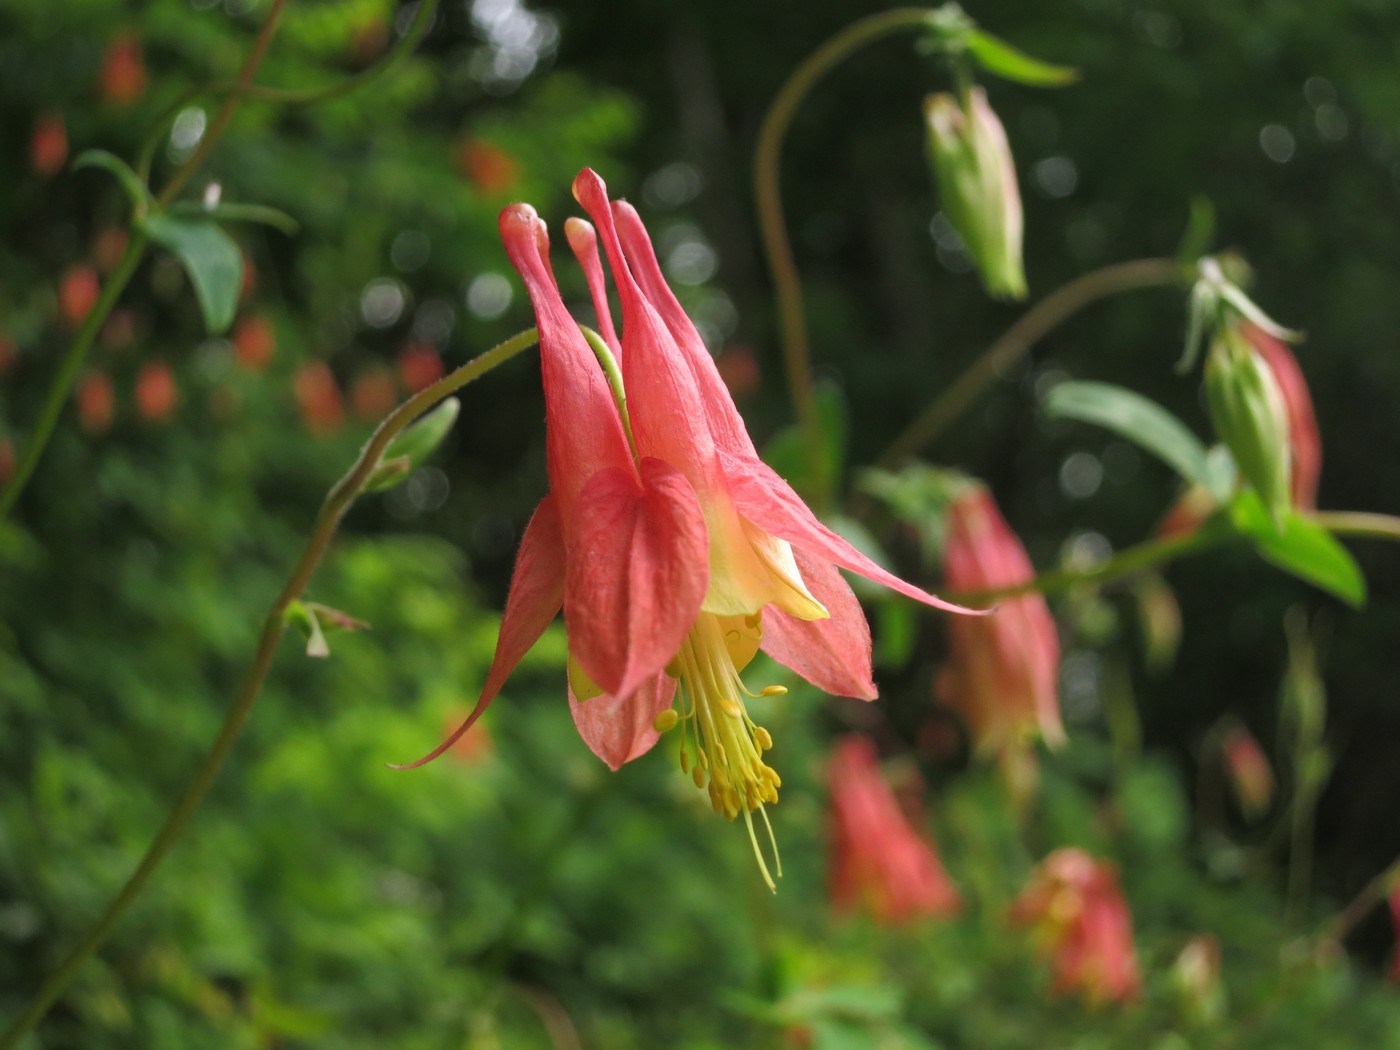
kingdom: Plantae
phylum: Tracheophyta
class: Magnoliopsida
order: Ranunculales
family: Ranunculaceae
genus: Aquilegia
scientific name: Aquilegia canadensis
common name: American columbine
